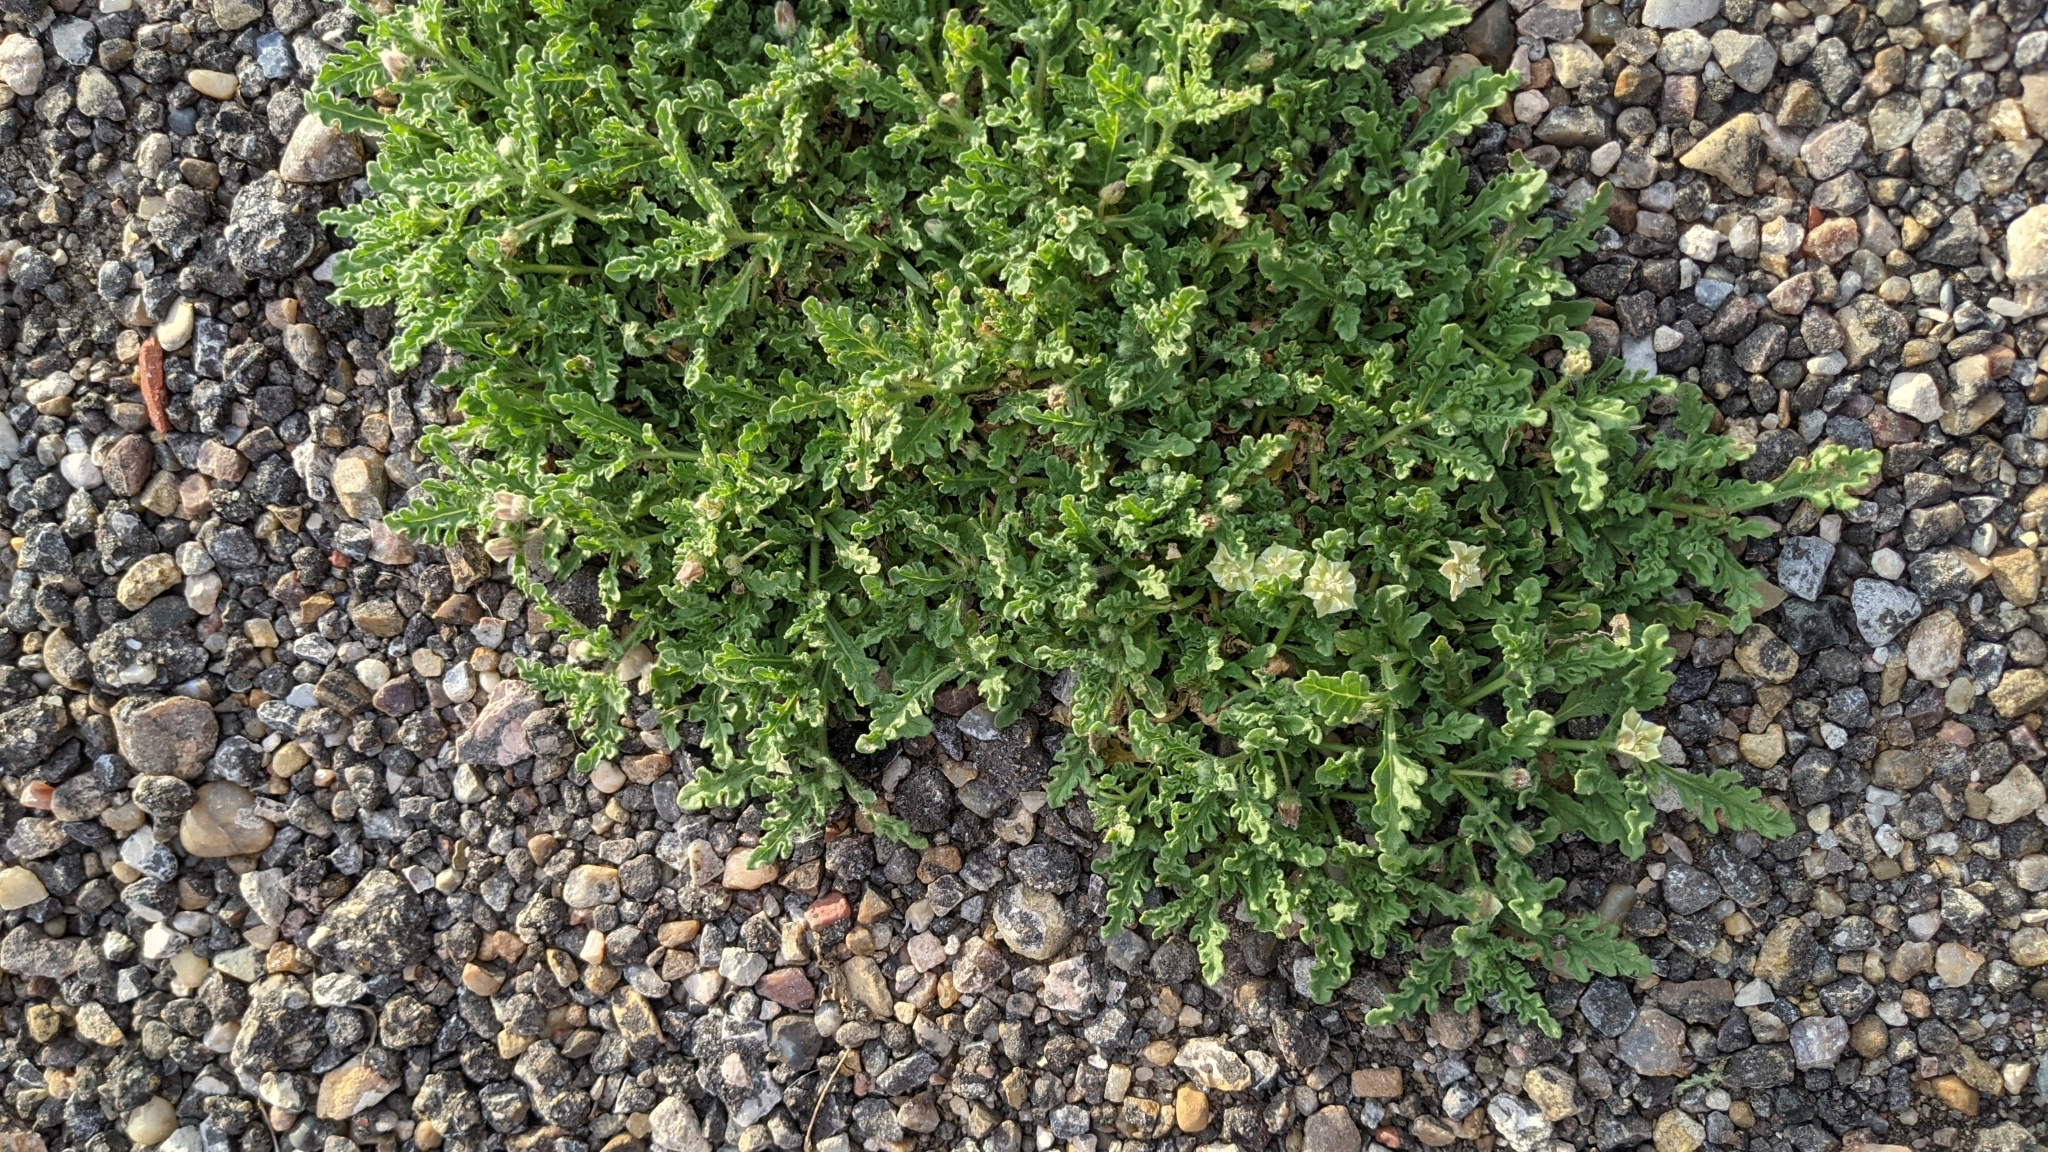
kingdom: Plantae
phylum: Tracheophyta
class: Magnoliopsida
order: Solanales
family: Solanaceae
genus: Chamaesaracha
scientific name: Chamaesaracha coniodes
